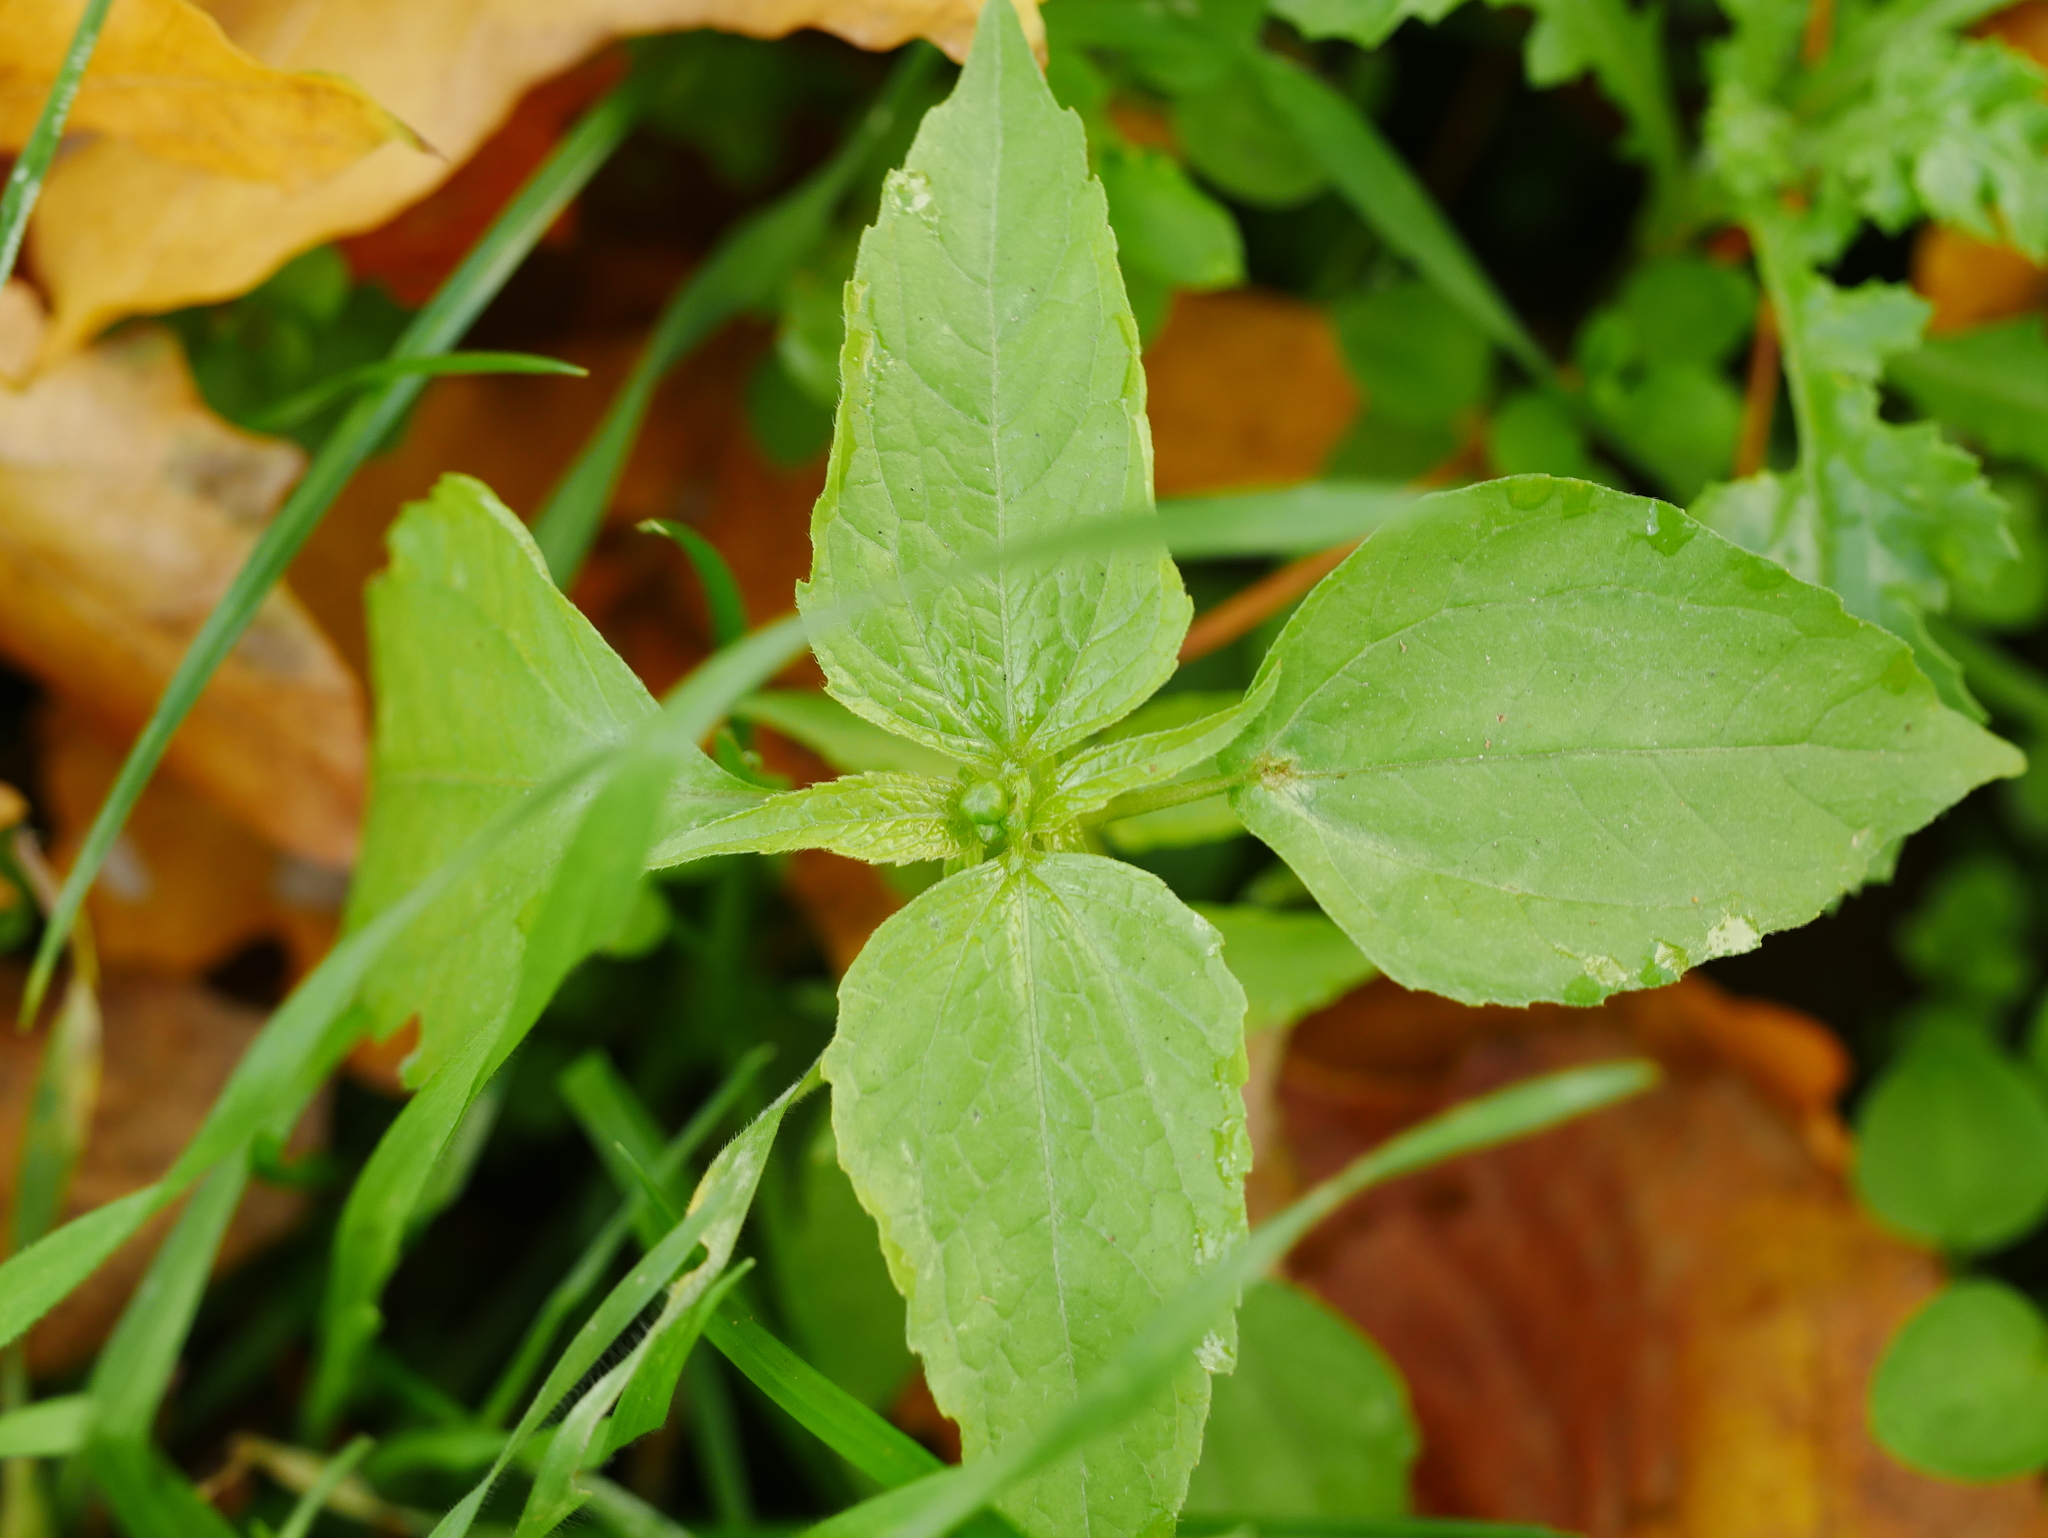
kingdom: Plantae
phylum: Tracheophyta
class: Magnoliopsida
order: Asterales
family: Asteraceae
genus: Galinsoga
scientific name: Galinsoga parviflora
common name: Gallant soldier
